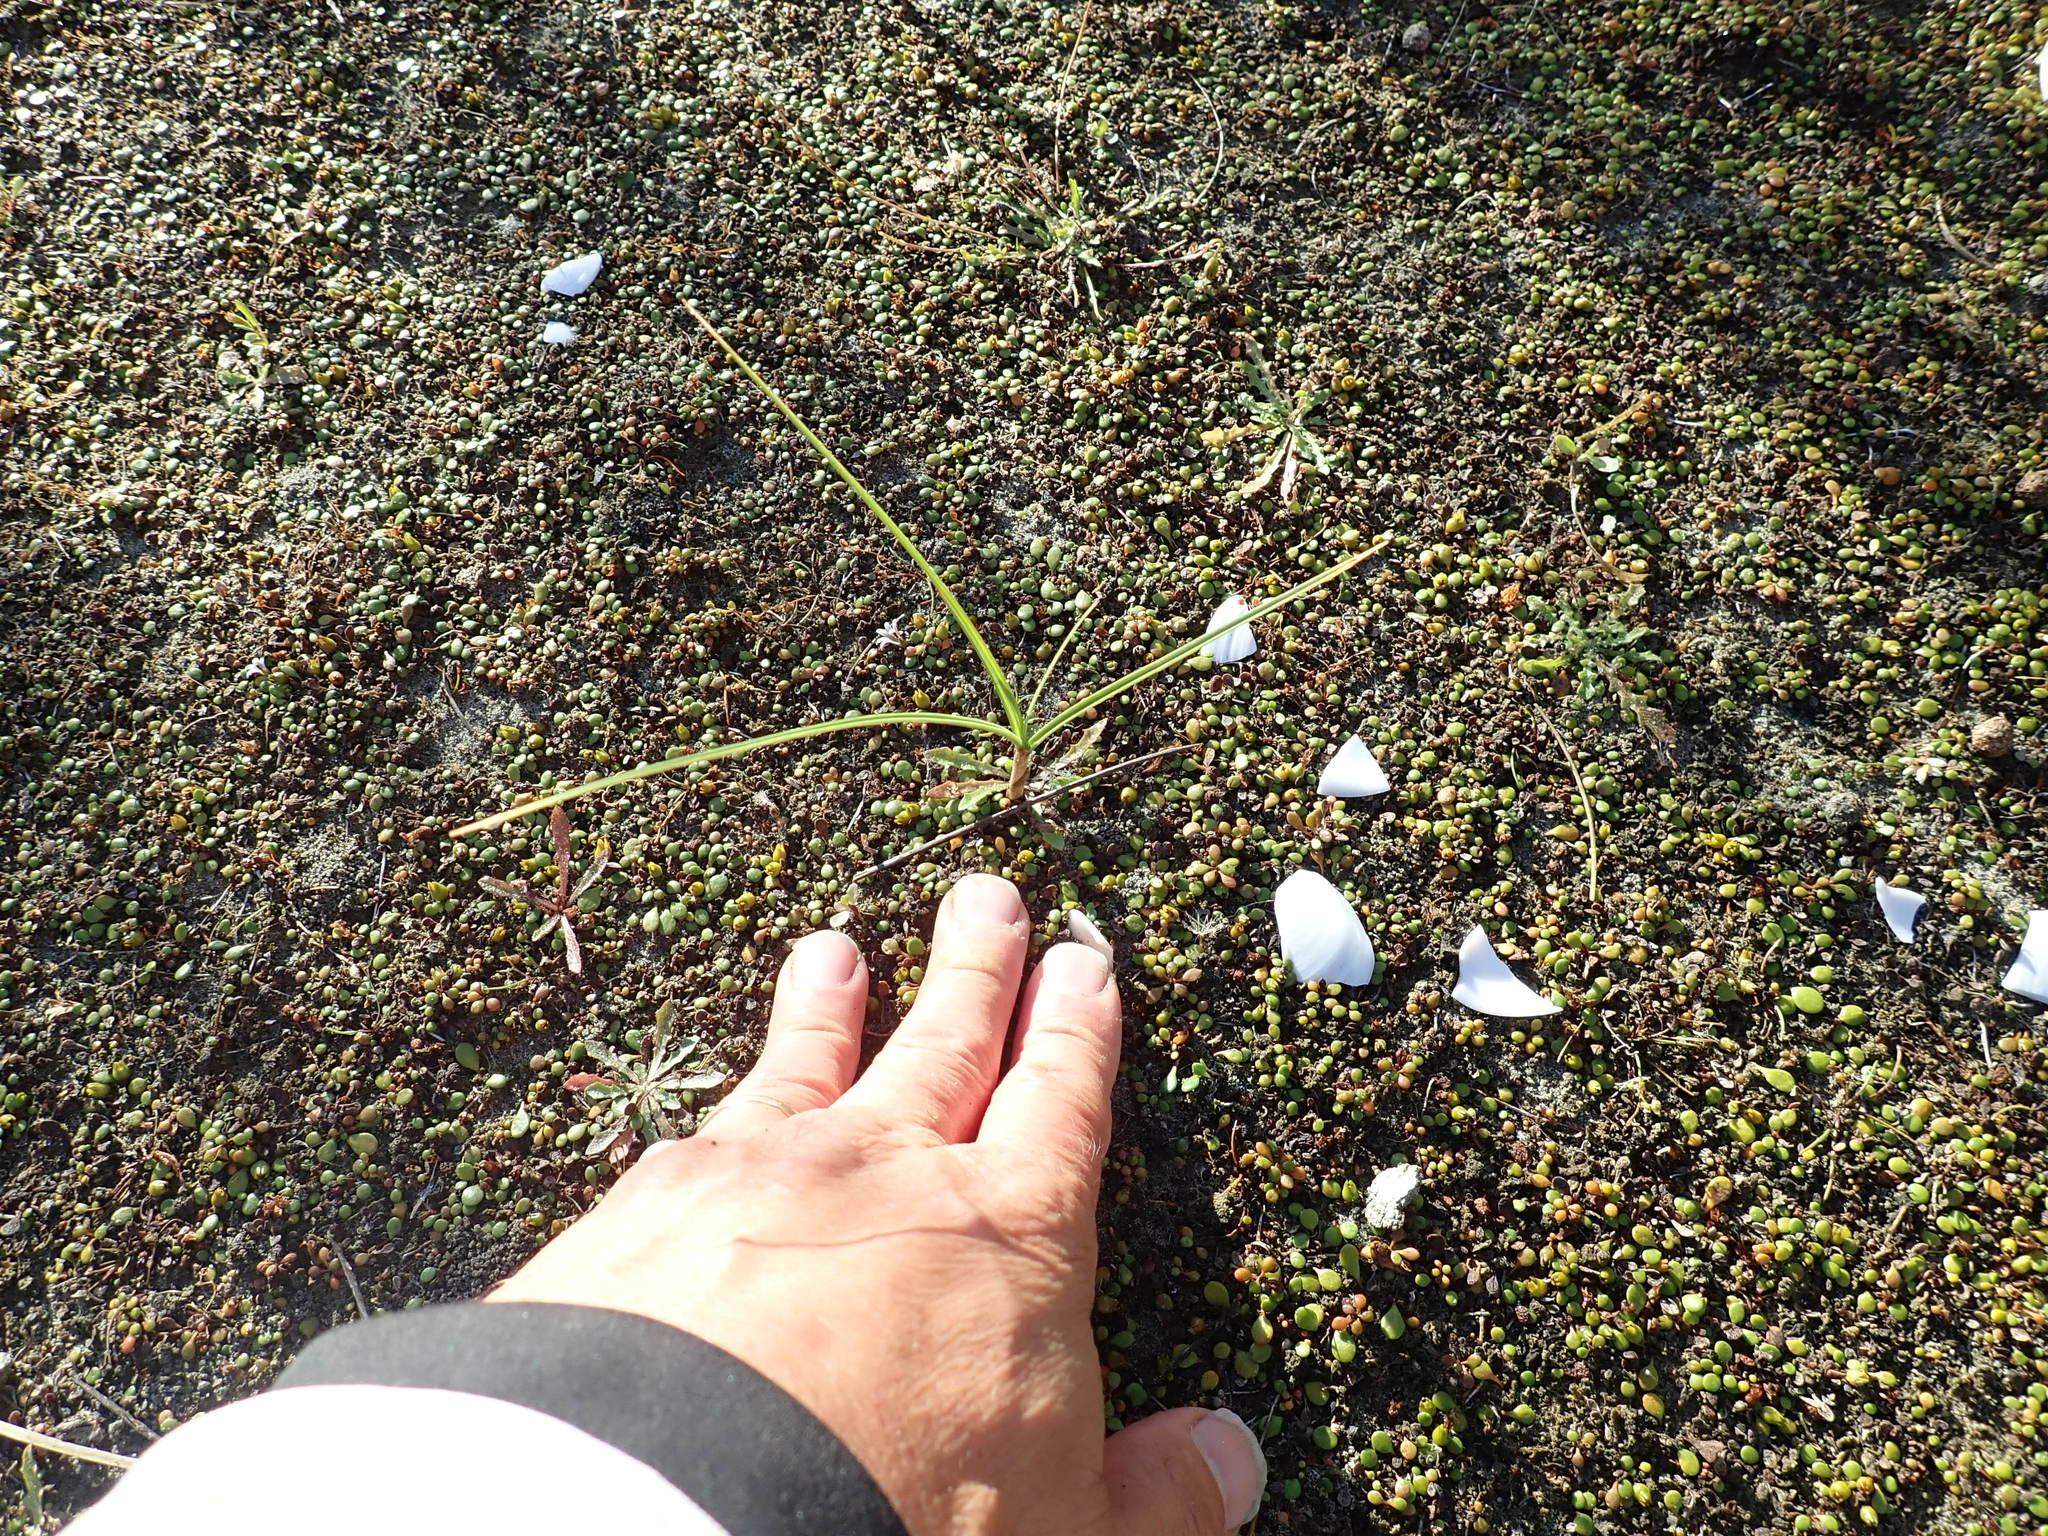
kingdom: Plantae
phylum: Tracheophyta
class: Liliopsida
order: Poales
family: Cyperaceae
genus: Carex
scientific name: Carex pumila
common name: Dwarf sedge
